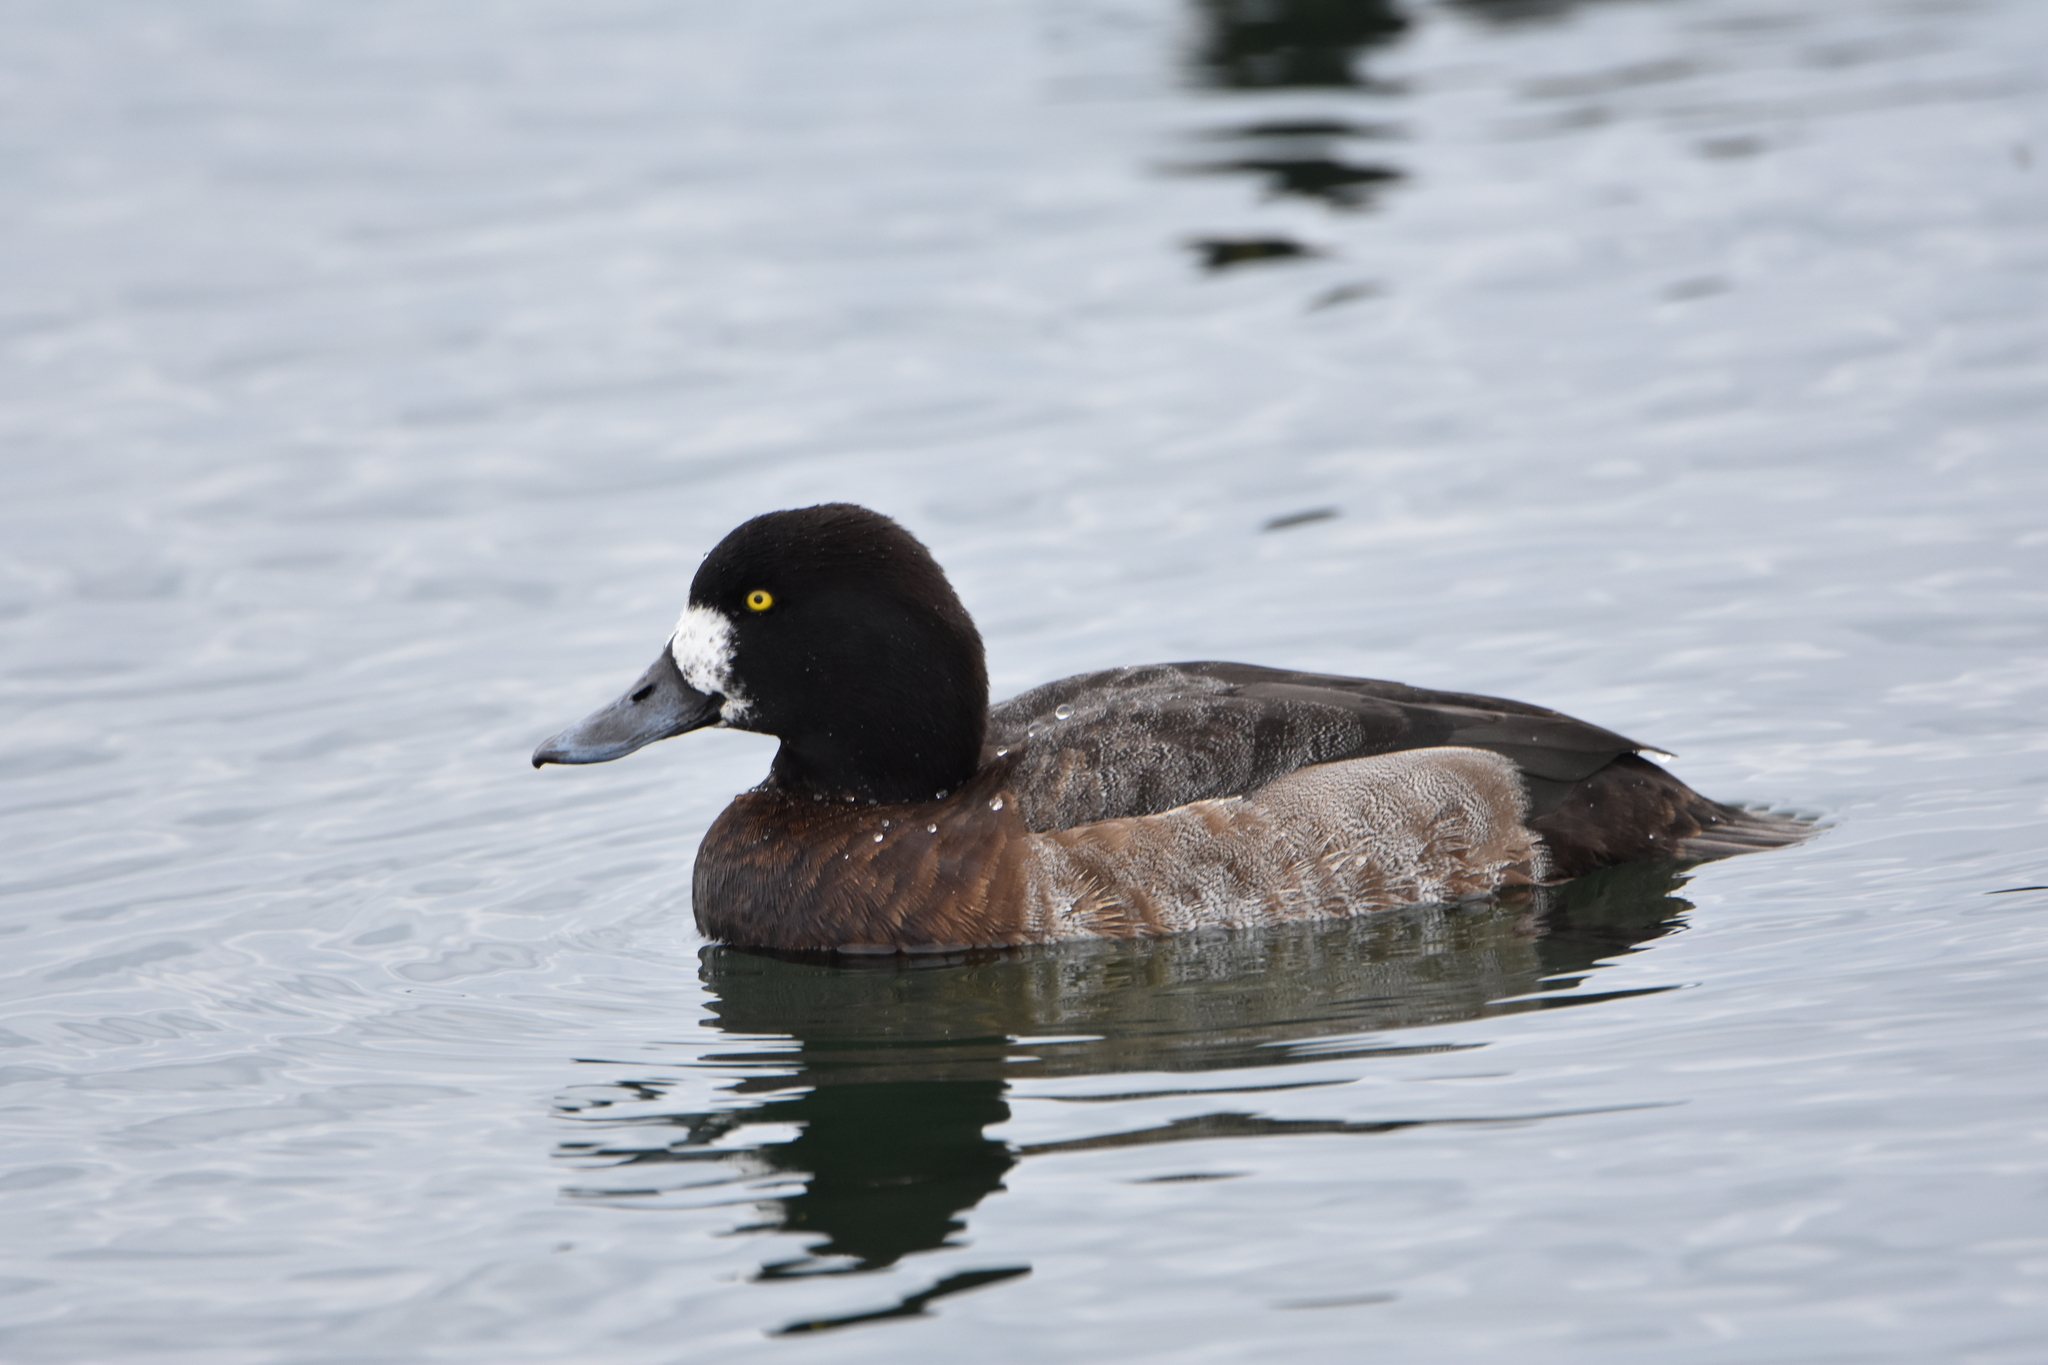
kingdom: Animalia
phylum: Chordata
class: Aves
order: Anseriformes
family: Anatidae
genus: Aythya
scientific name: Aythya marila
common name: Greater scaup
